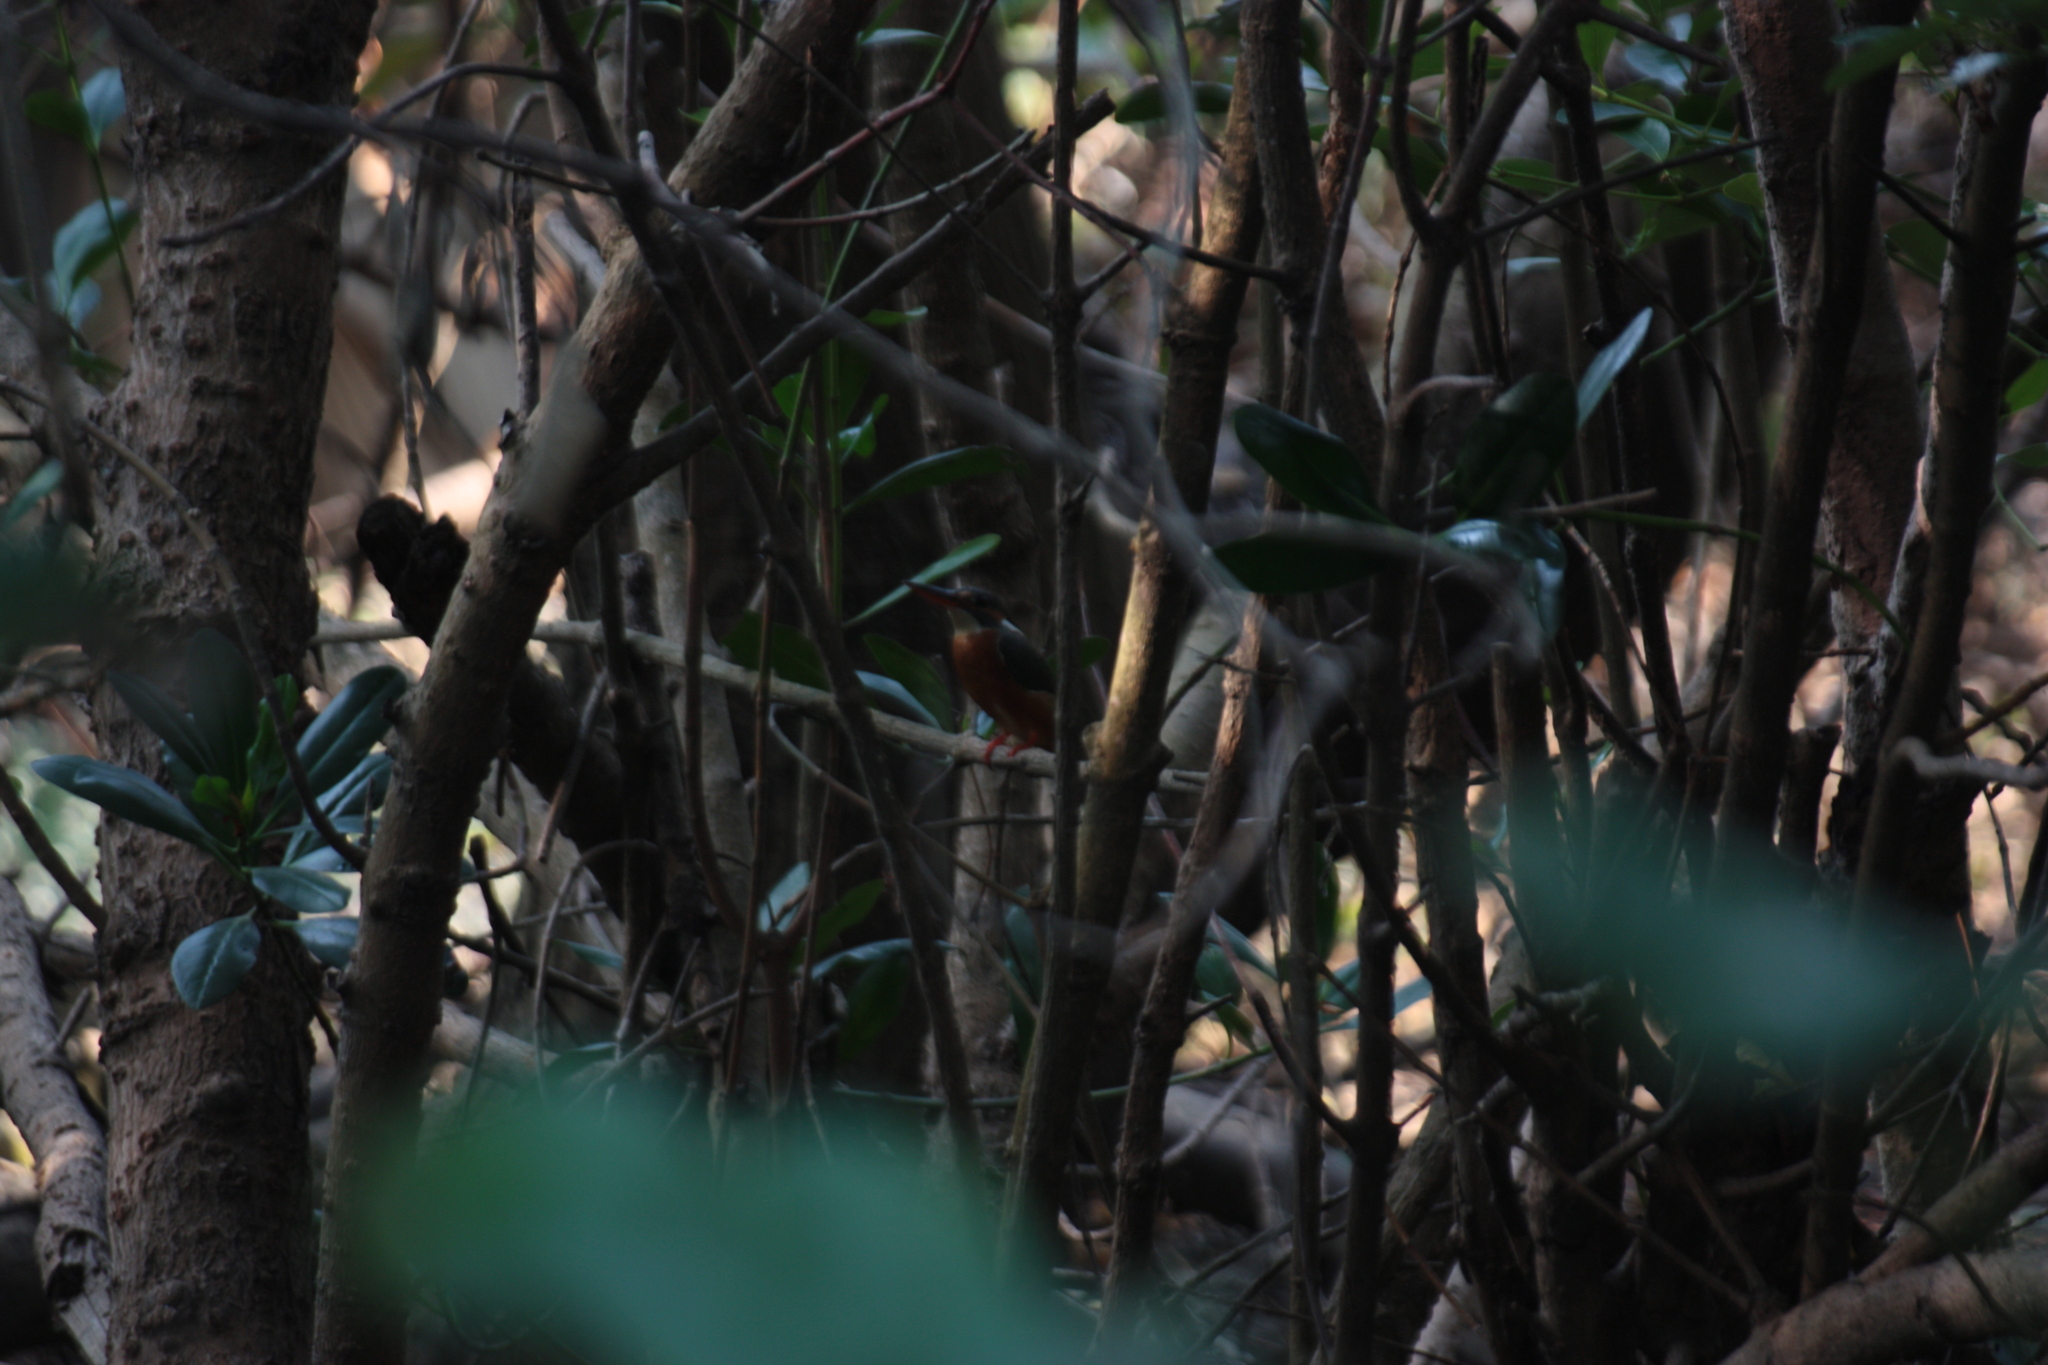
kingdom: Animalia
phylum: Chordata
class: Aves
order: Coraciiformes
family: Alcedinidae
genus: Alcedo
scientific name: Alcedo atthis
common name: Common kingfisher
